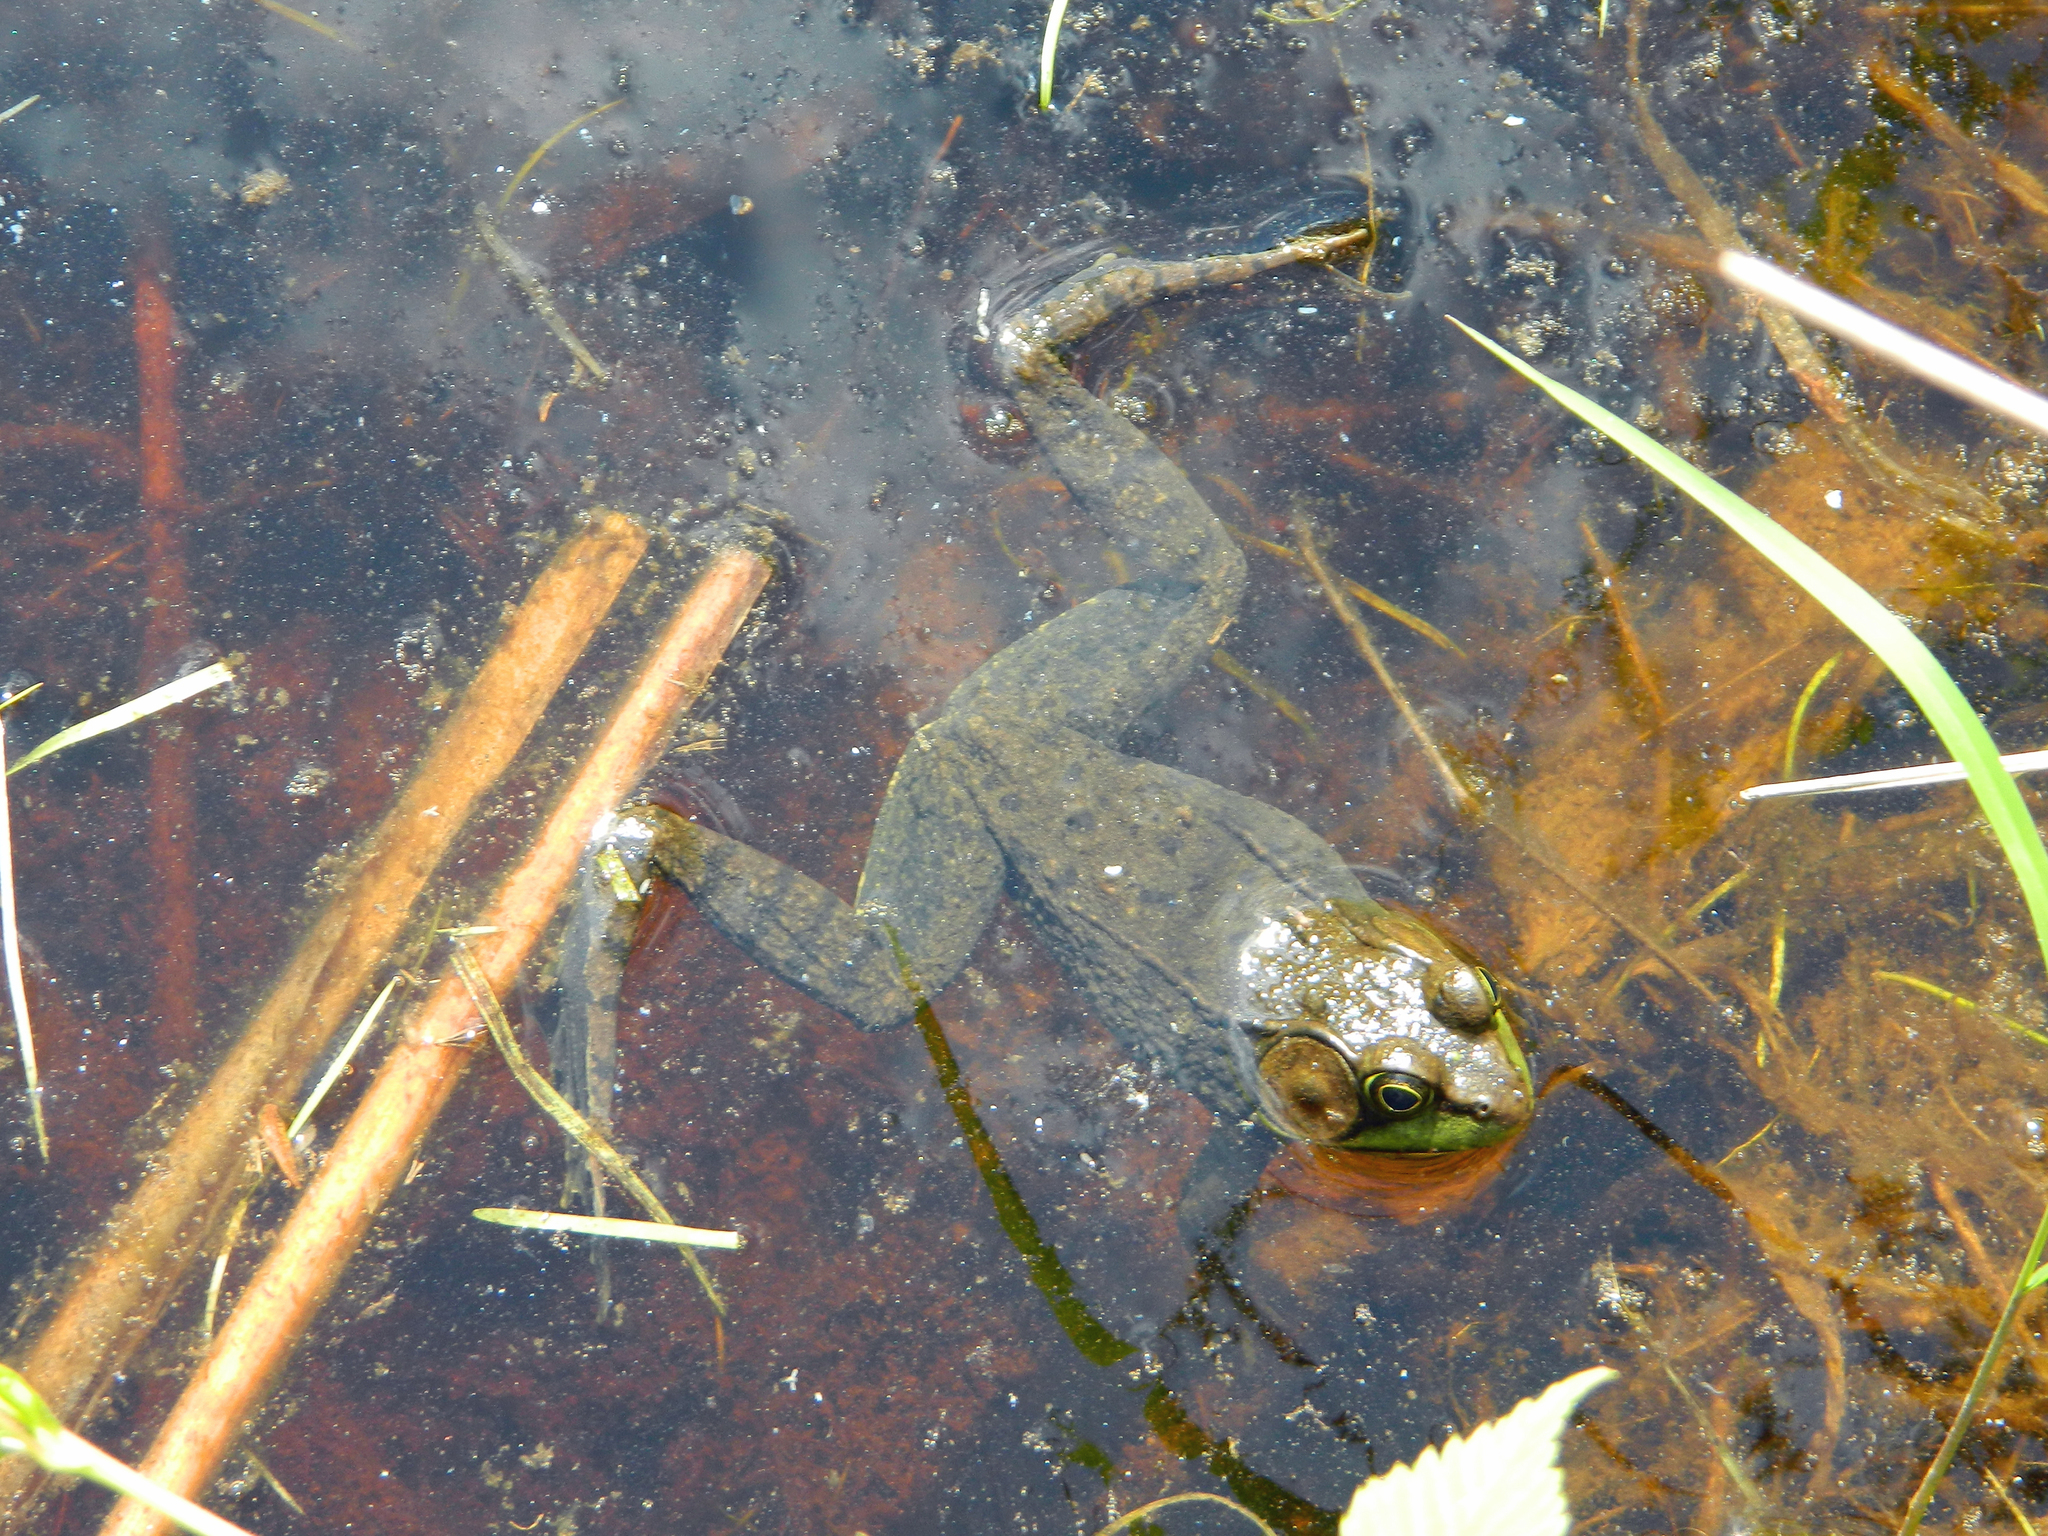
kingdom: Animalia
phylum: Chordata
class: Amphibia
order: Anura
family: Ranidae
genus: Lithobates
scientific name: Lithobates clamitans
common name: Green frog
